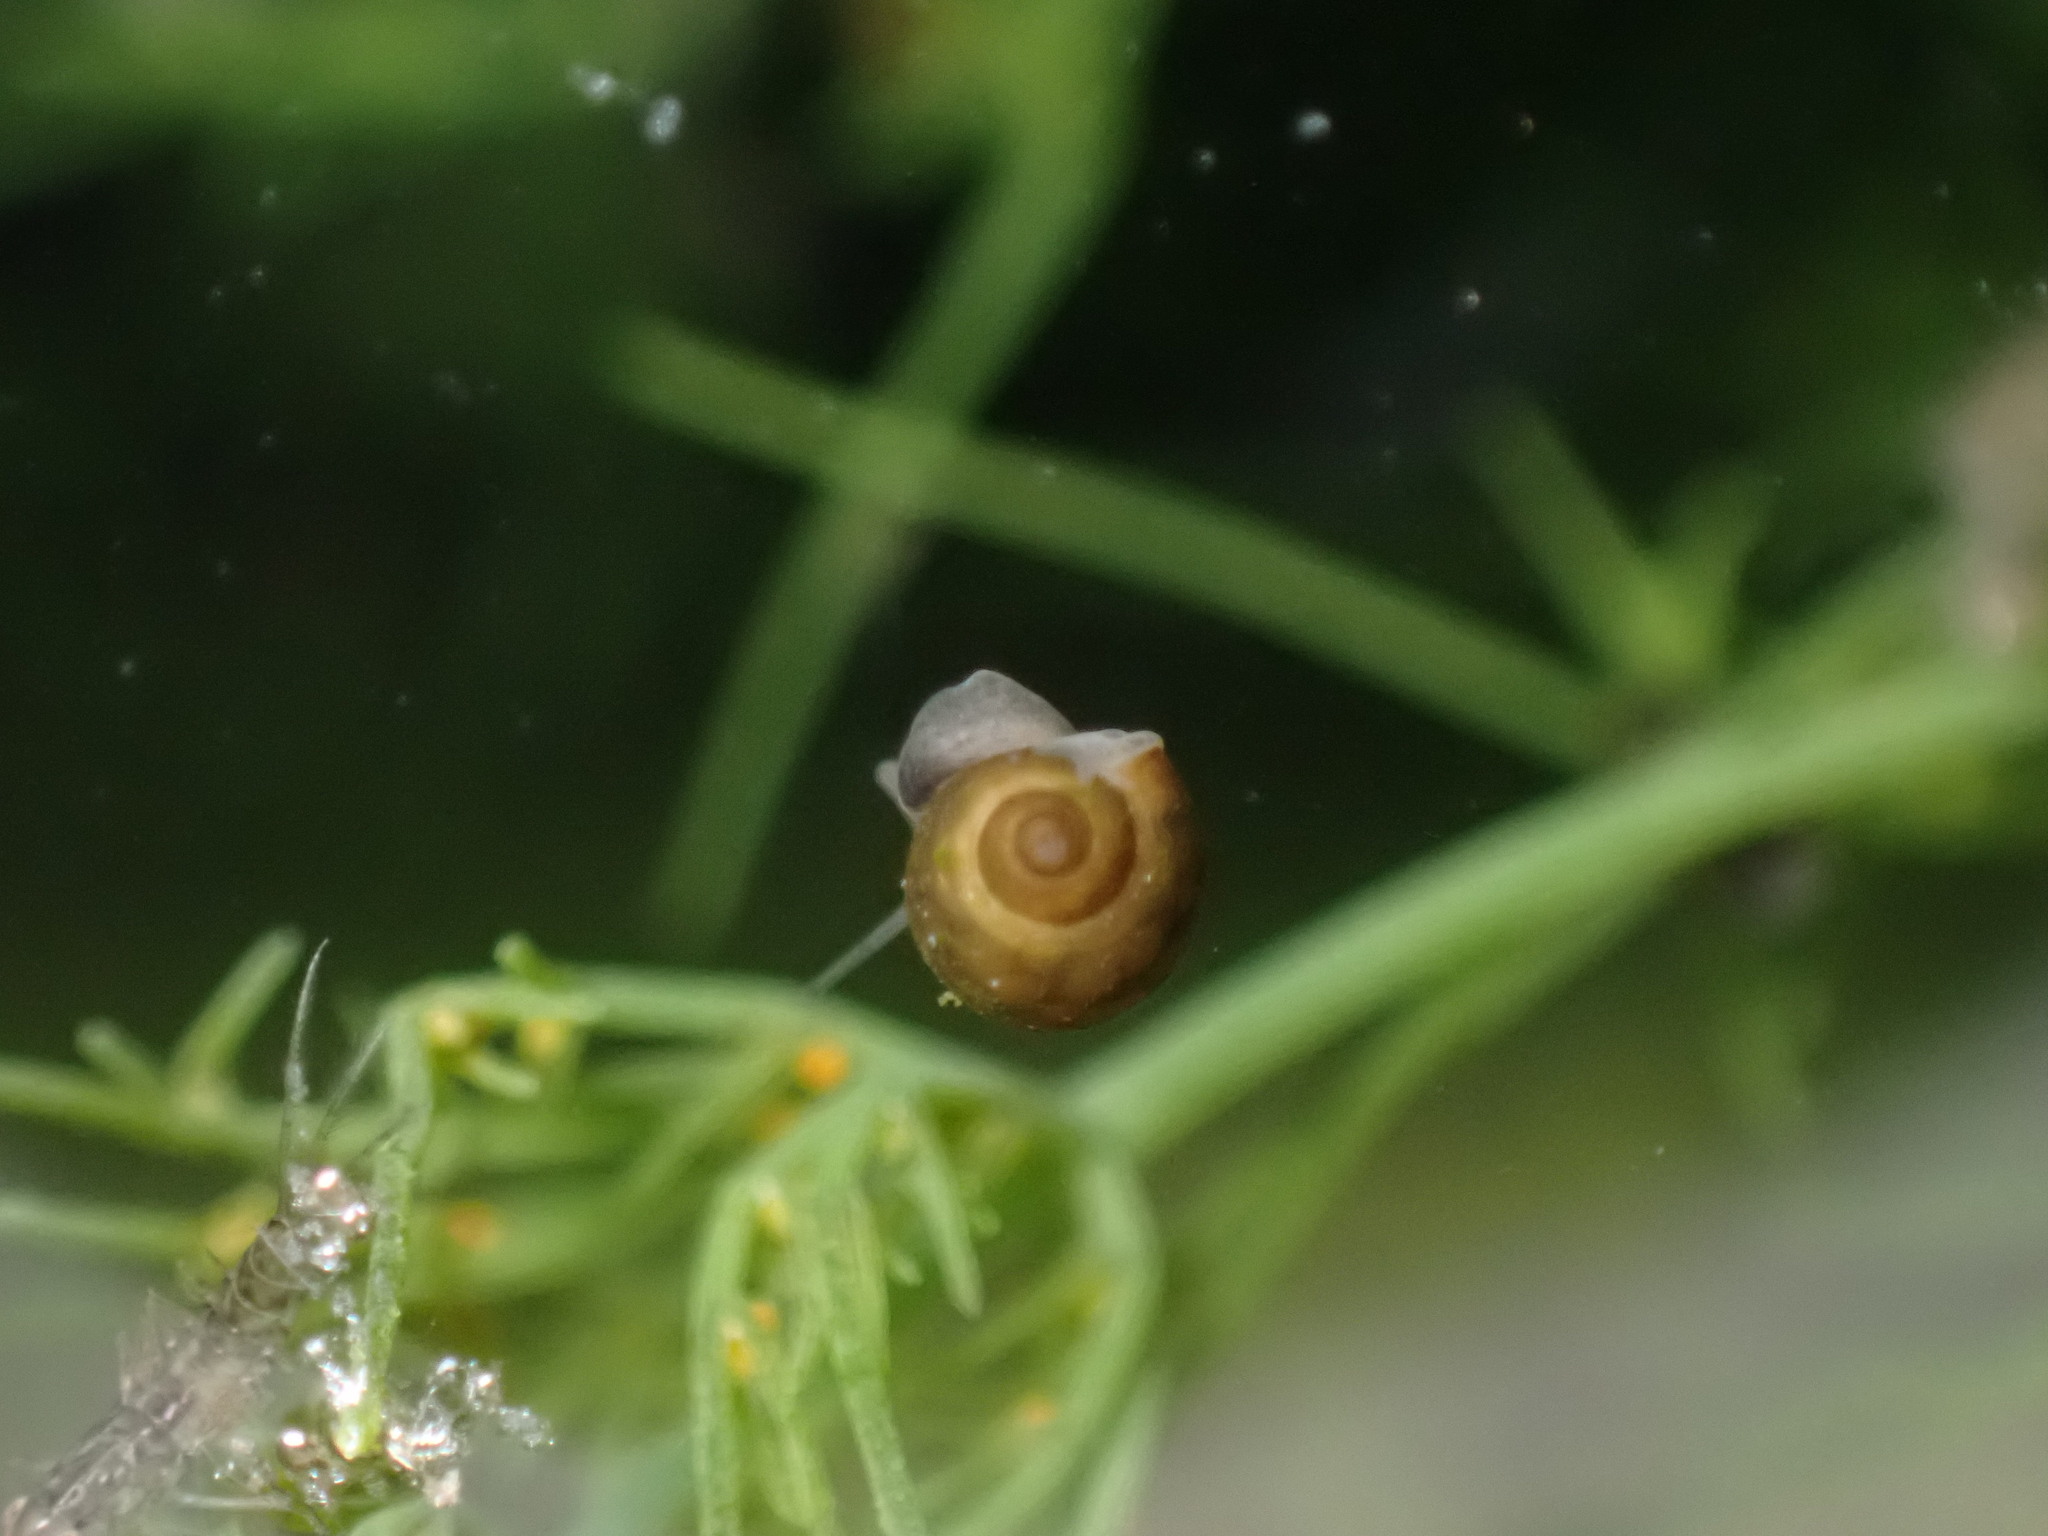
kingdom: Animalia
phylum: Mollusca
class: Gastropoda
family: Physidae
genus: Physella
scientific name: Physella acuta
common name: European physa
